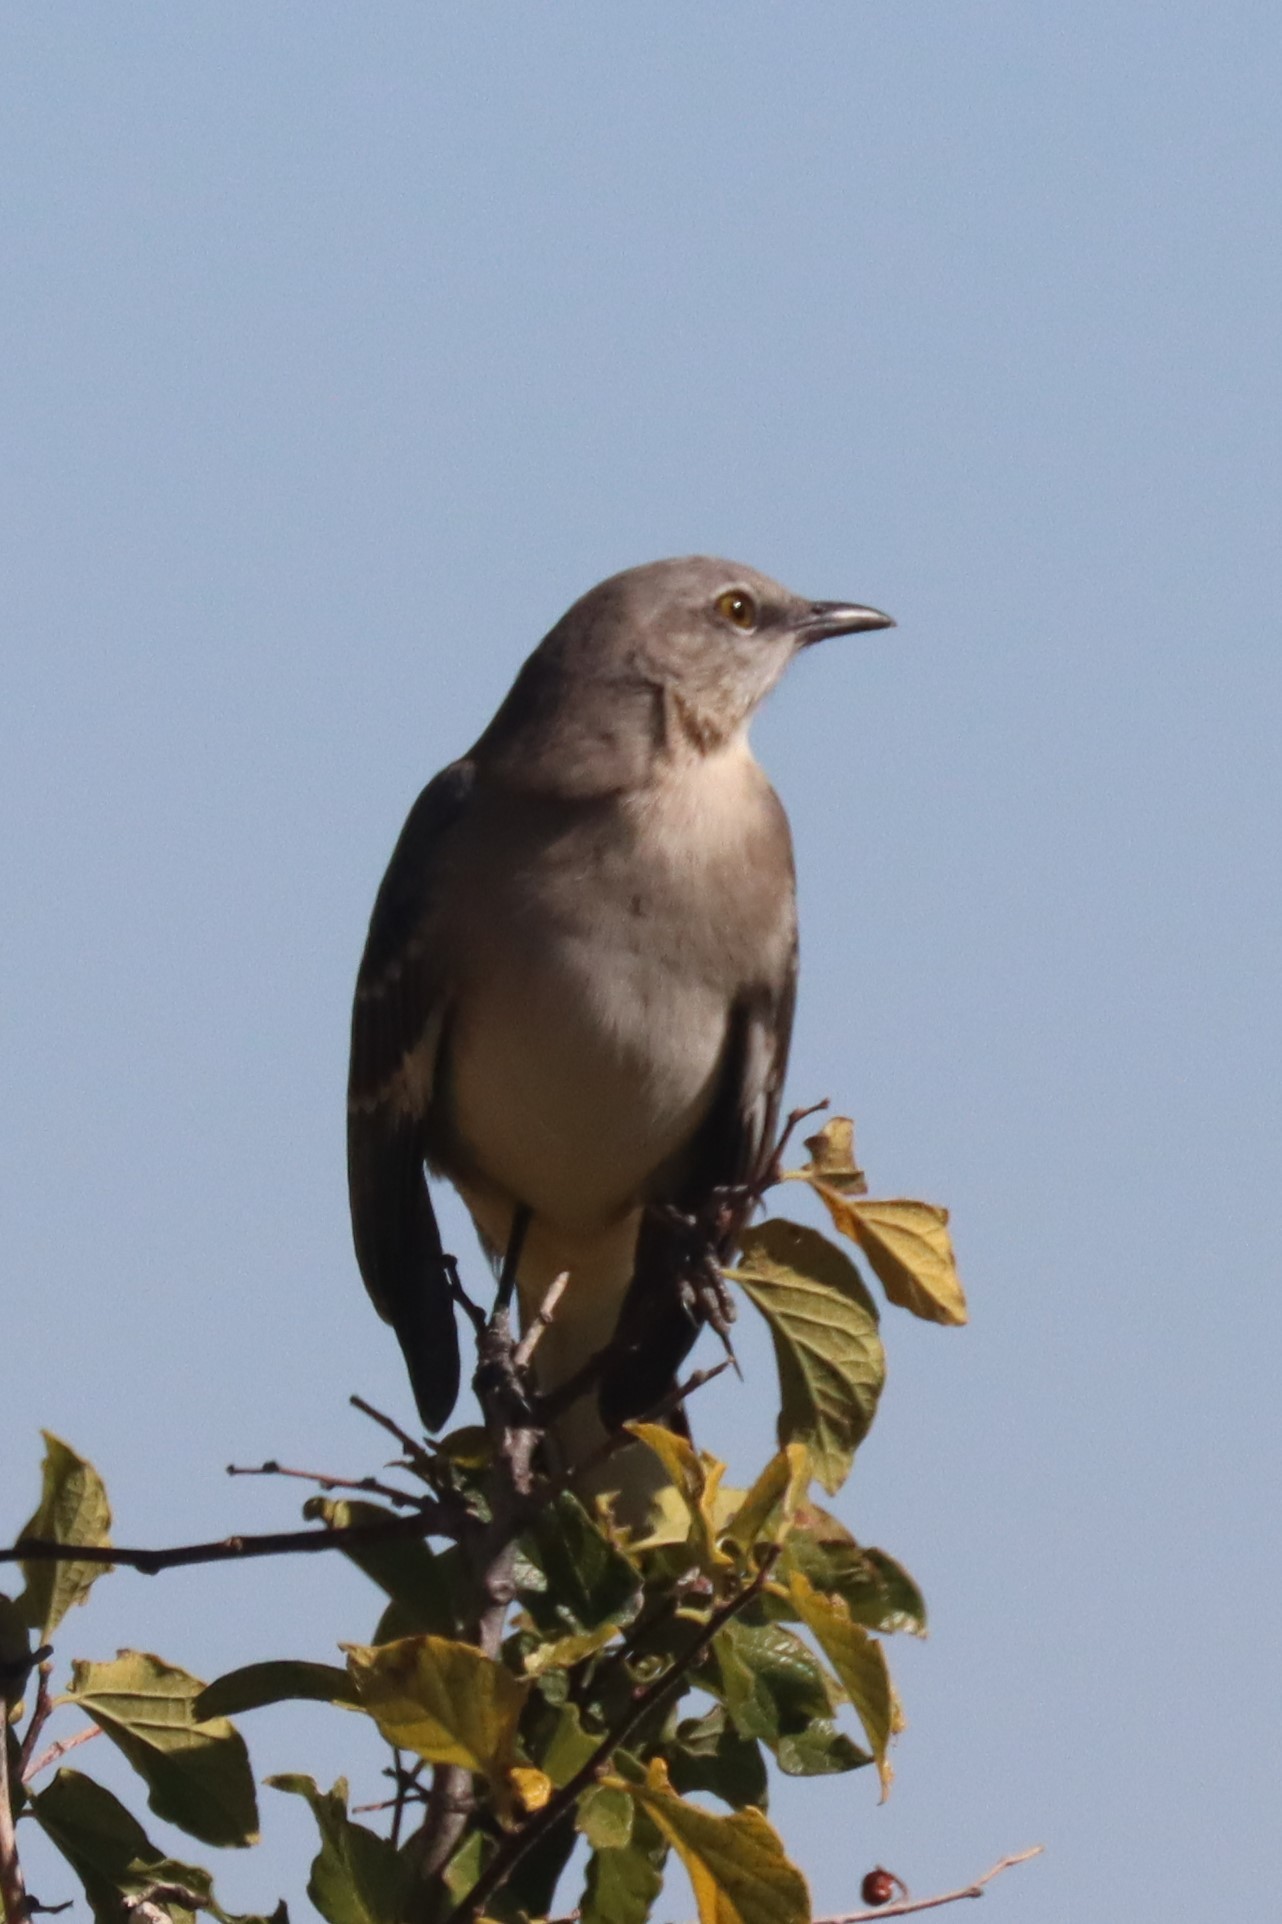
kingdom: Animalia
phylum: Chordata
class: Aves
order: Passeriformes
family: Mimidae
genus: Mimus
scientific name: Mimus polyglottos
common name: Northern mockingbird
